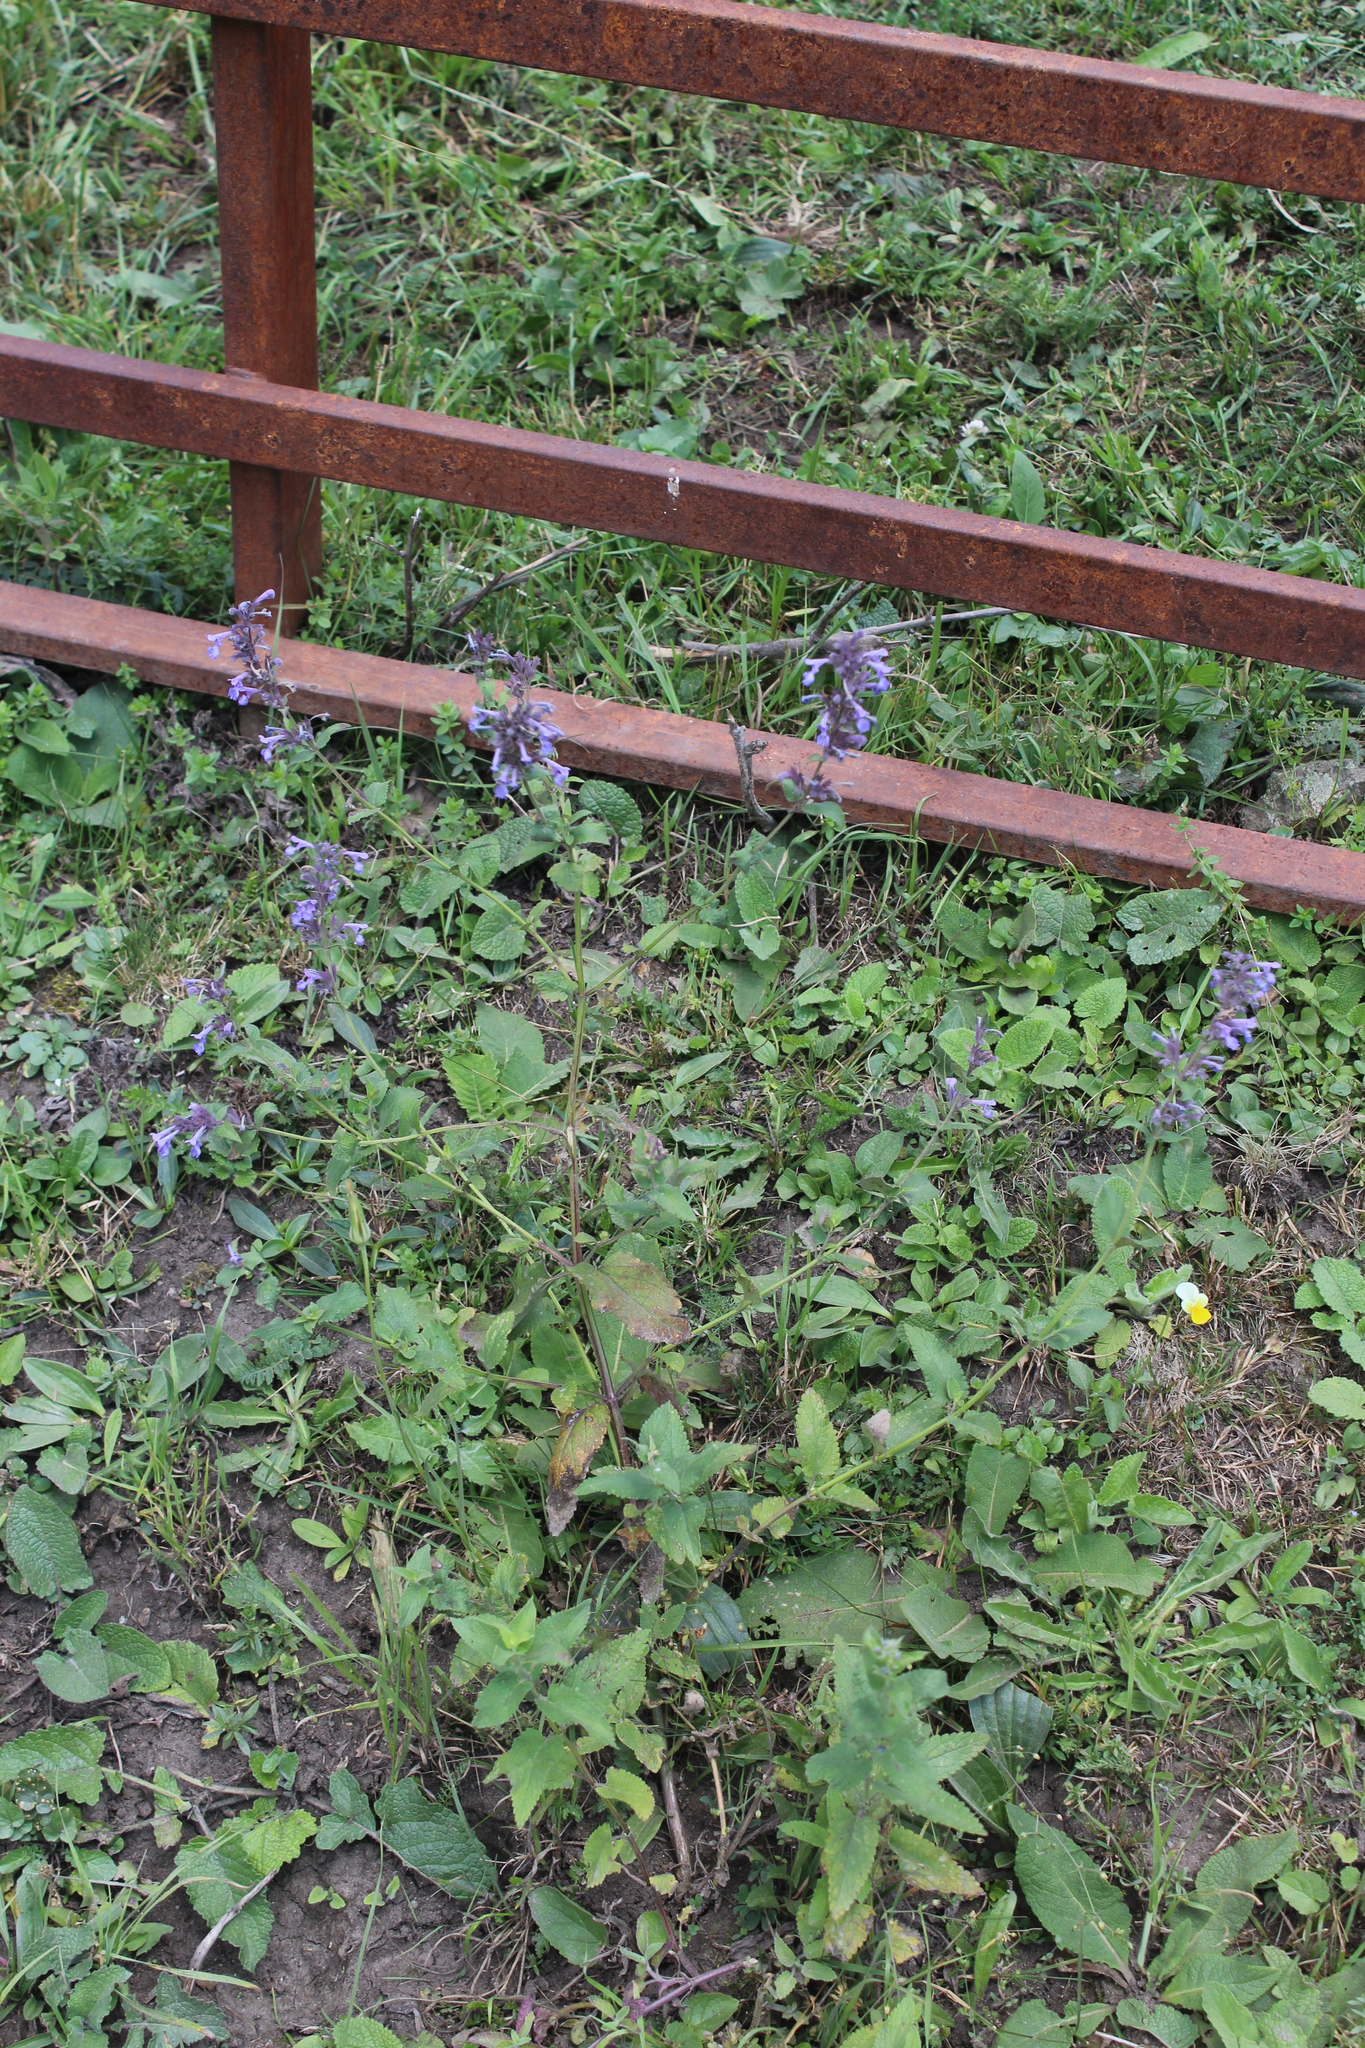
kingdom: Plantae
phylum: Tracheophyta
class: Magnoliopsida
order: Lamiales
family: Lamiaceae
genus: Nepeta
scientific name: Nepeta grandiflora
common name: Caucasus catmint
